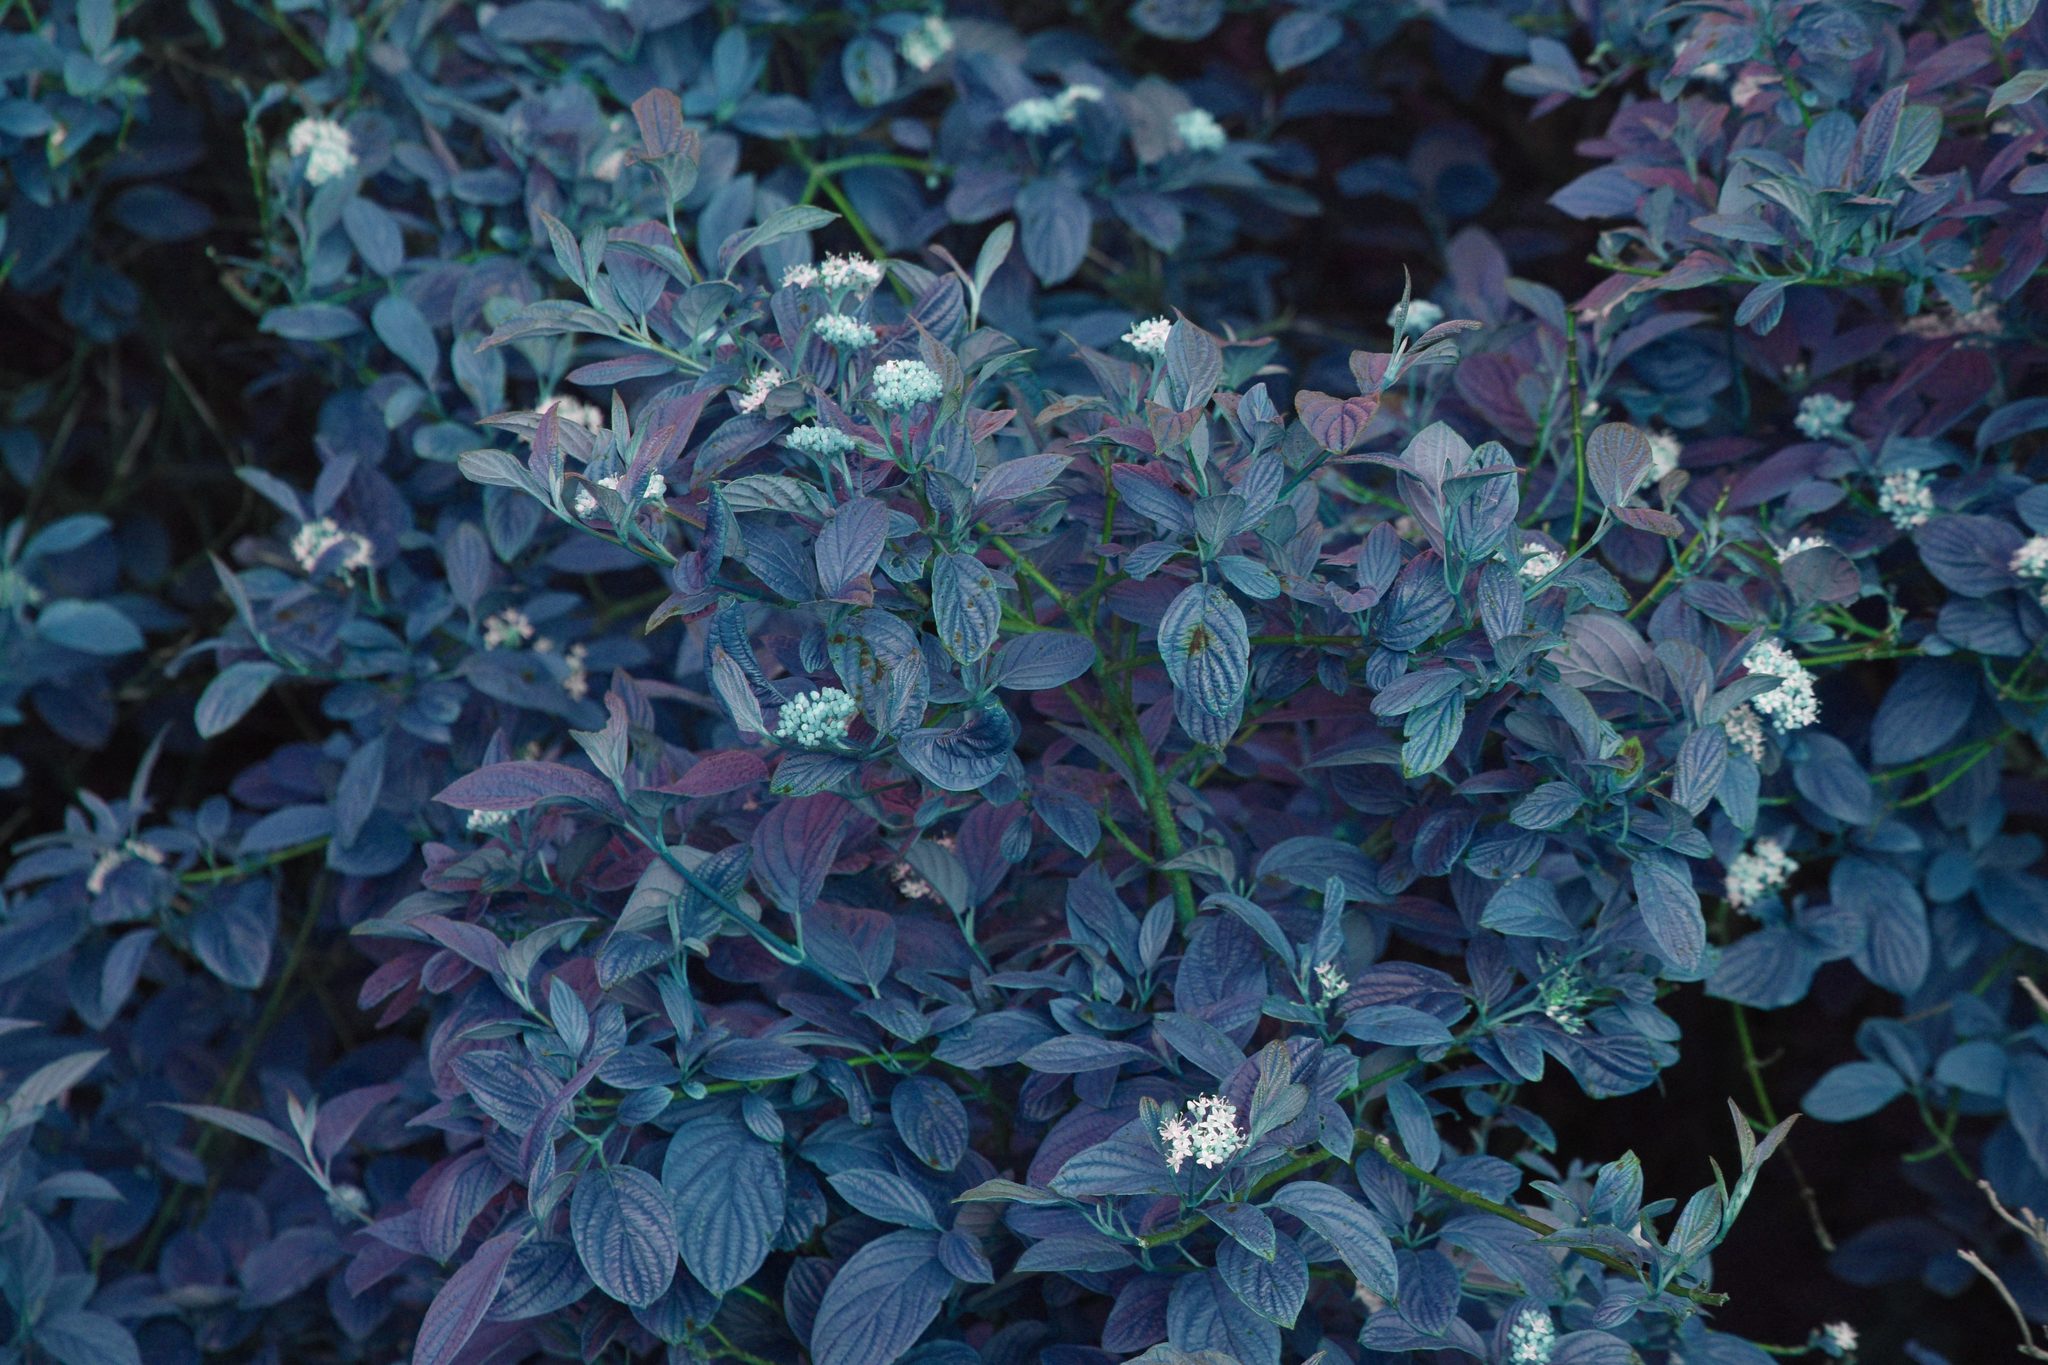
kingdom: Plantae
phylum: Tracheophyta
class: Magnoliopsida
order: Cornales
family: Cornaceae
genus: Cornus
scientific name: Cornus sericea
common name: Red-osier dogwood
